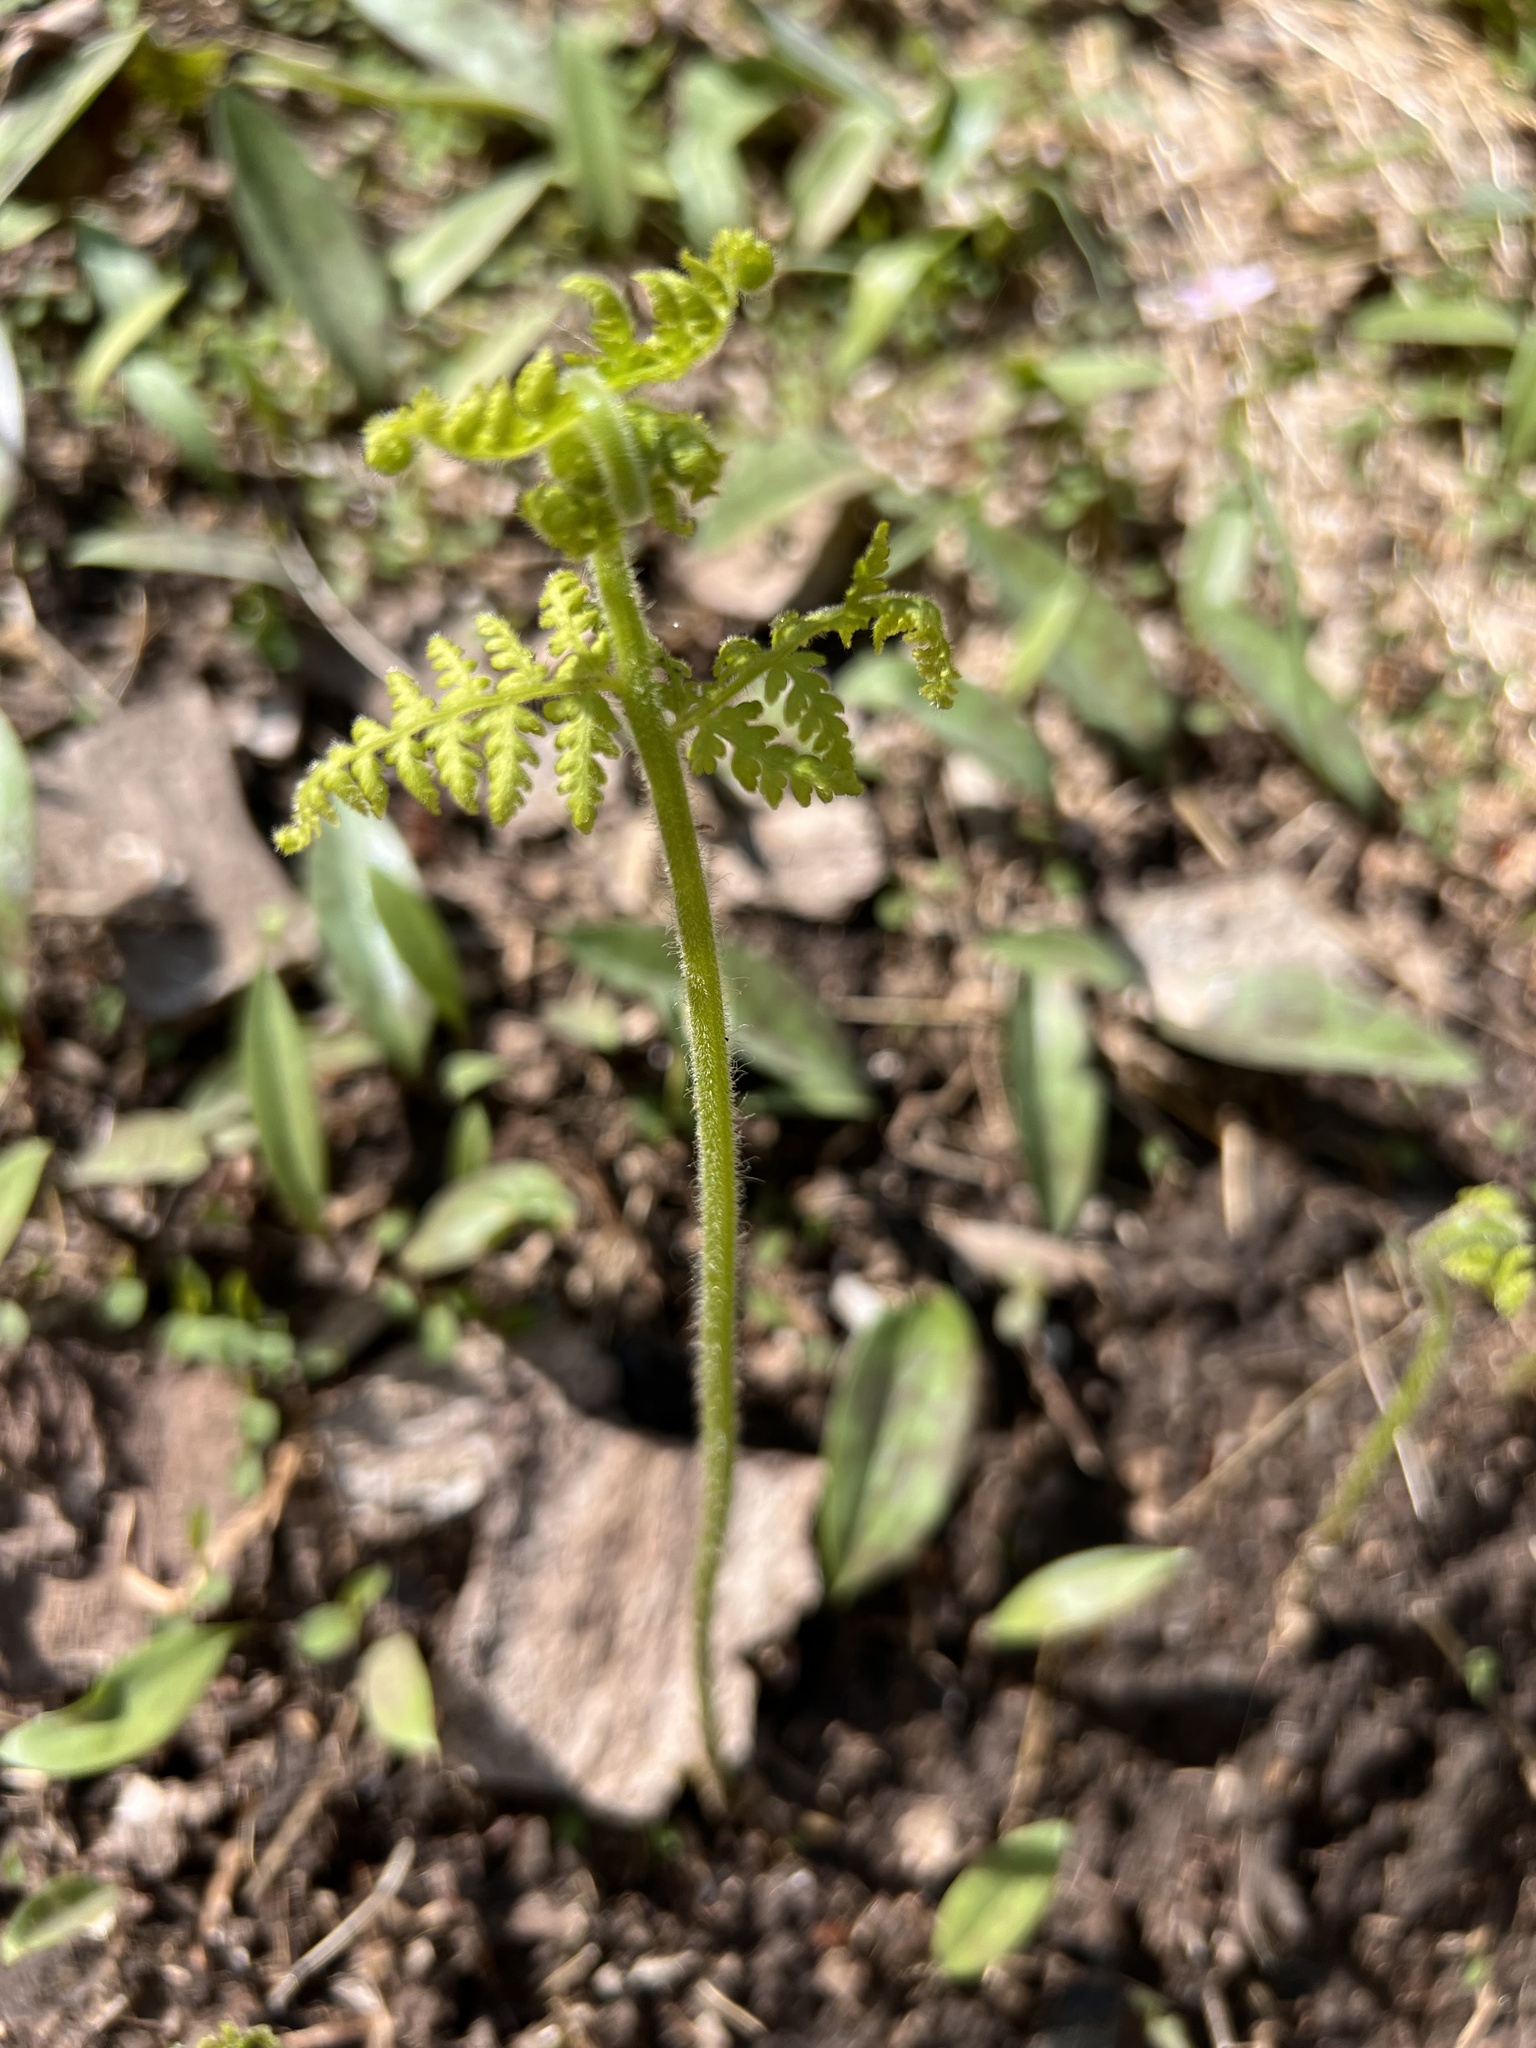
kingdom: Plantae
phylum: Tracheophyta
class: Polypodiopsida
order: Polypodiales
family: Dennstaedtiaceae
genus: Sitobolium
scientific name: Sitobolium punctilobum
